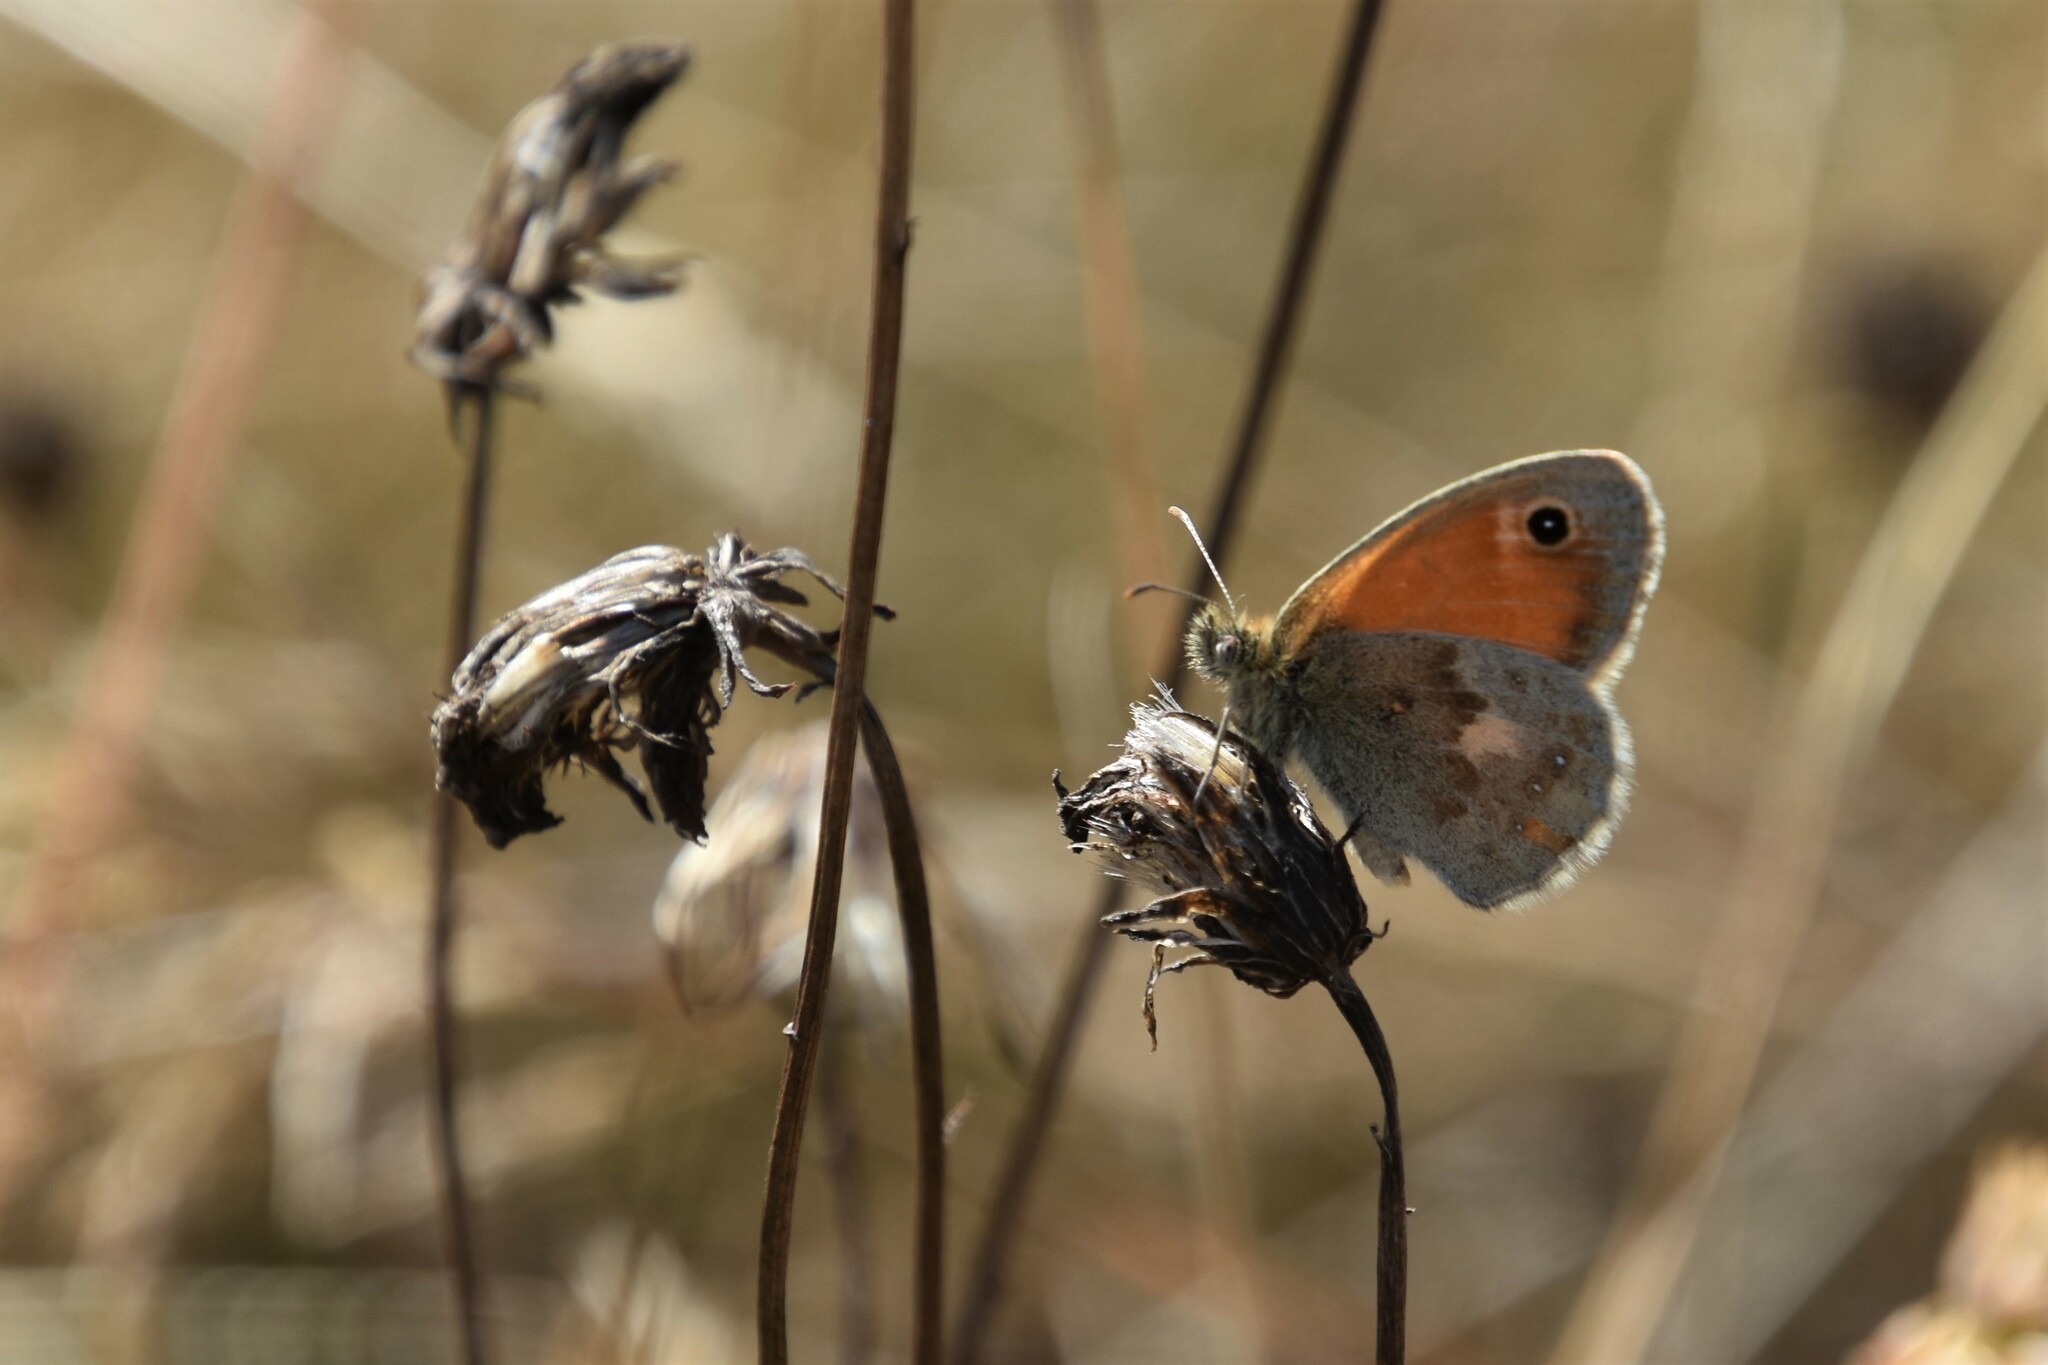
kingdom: Animalia
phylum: Arthropoda
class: Insecta
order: Lepidoptera
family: Nymphalidae
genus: Coenonympha
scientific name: Coenonympha pamphilus
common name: Small heath
